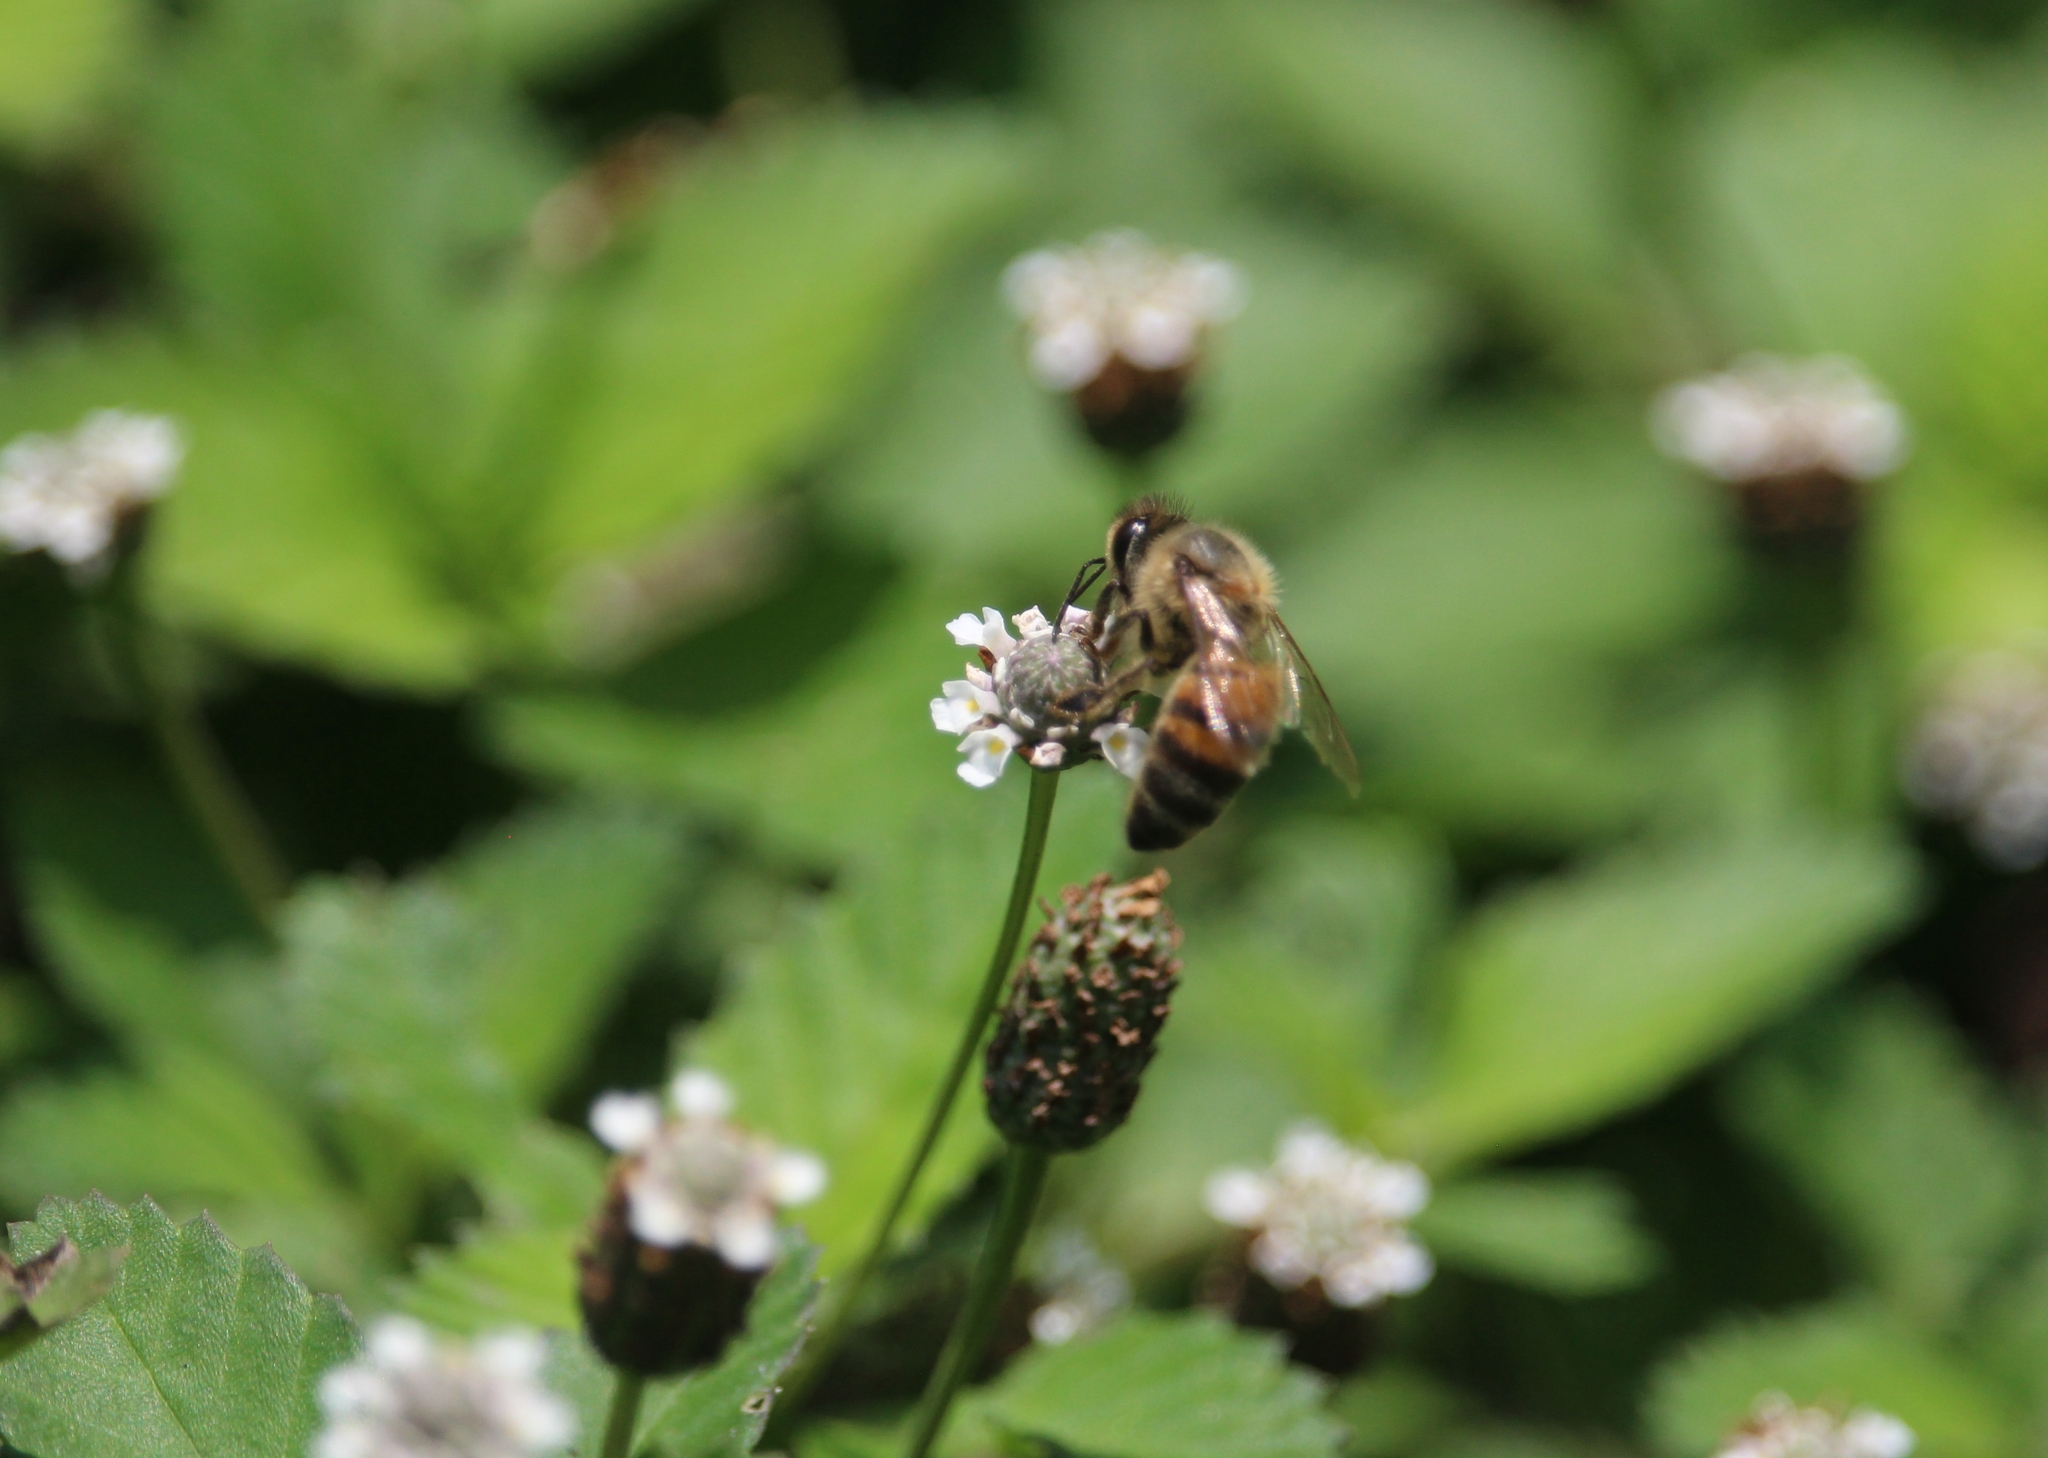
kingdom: Animalia
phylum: Arthropoda
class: Insecta
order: Hymenoptera
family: Apidae
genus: Apis
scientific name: Apis mellifera
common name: Honey bee
